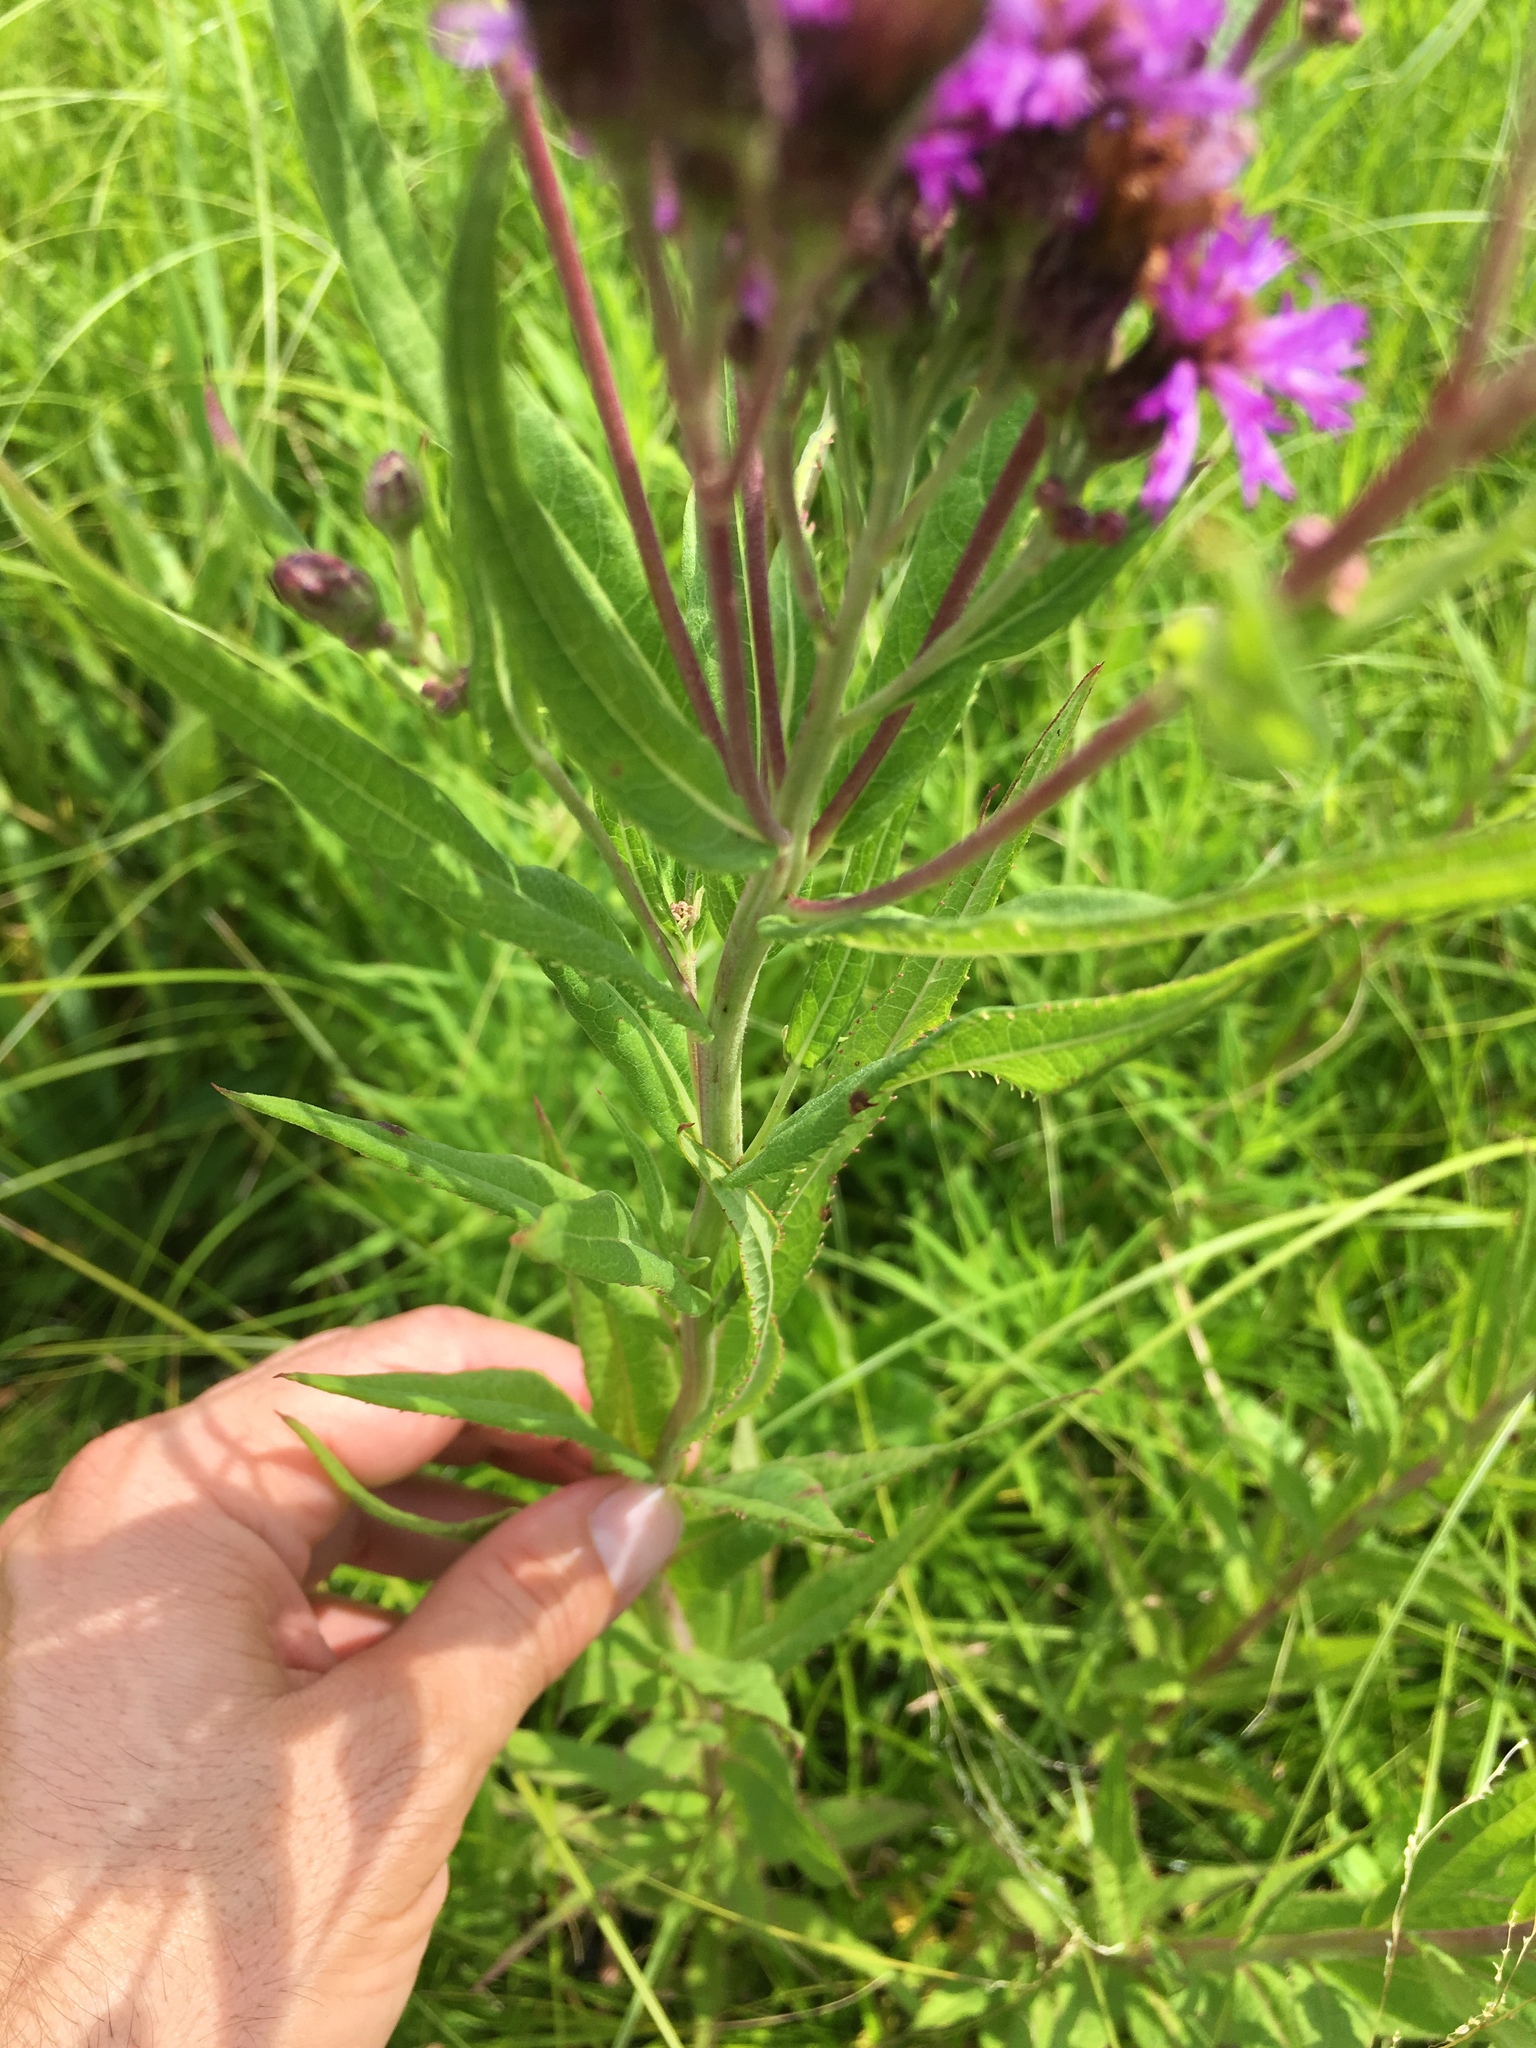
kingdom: Plantae
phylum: Tracheophyta
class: Magnoliopsida
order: Asterales
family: Asteraceae
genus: Vernonia
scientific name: Vernonia missurica
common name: Missouri ironweed
